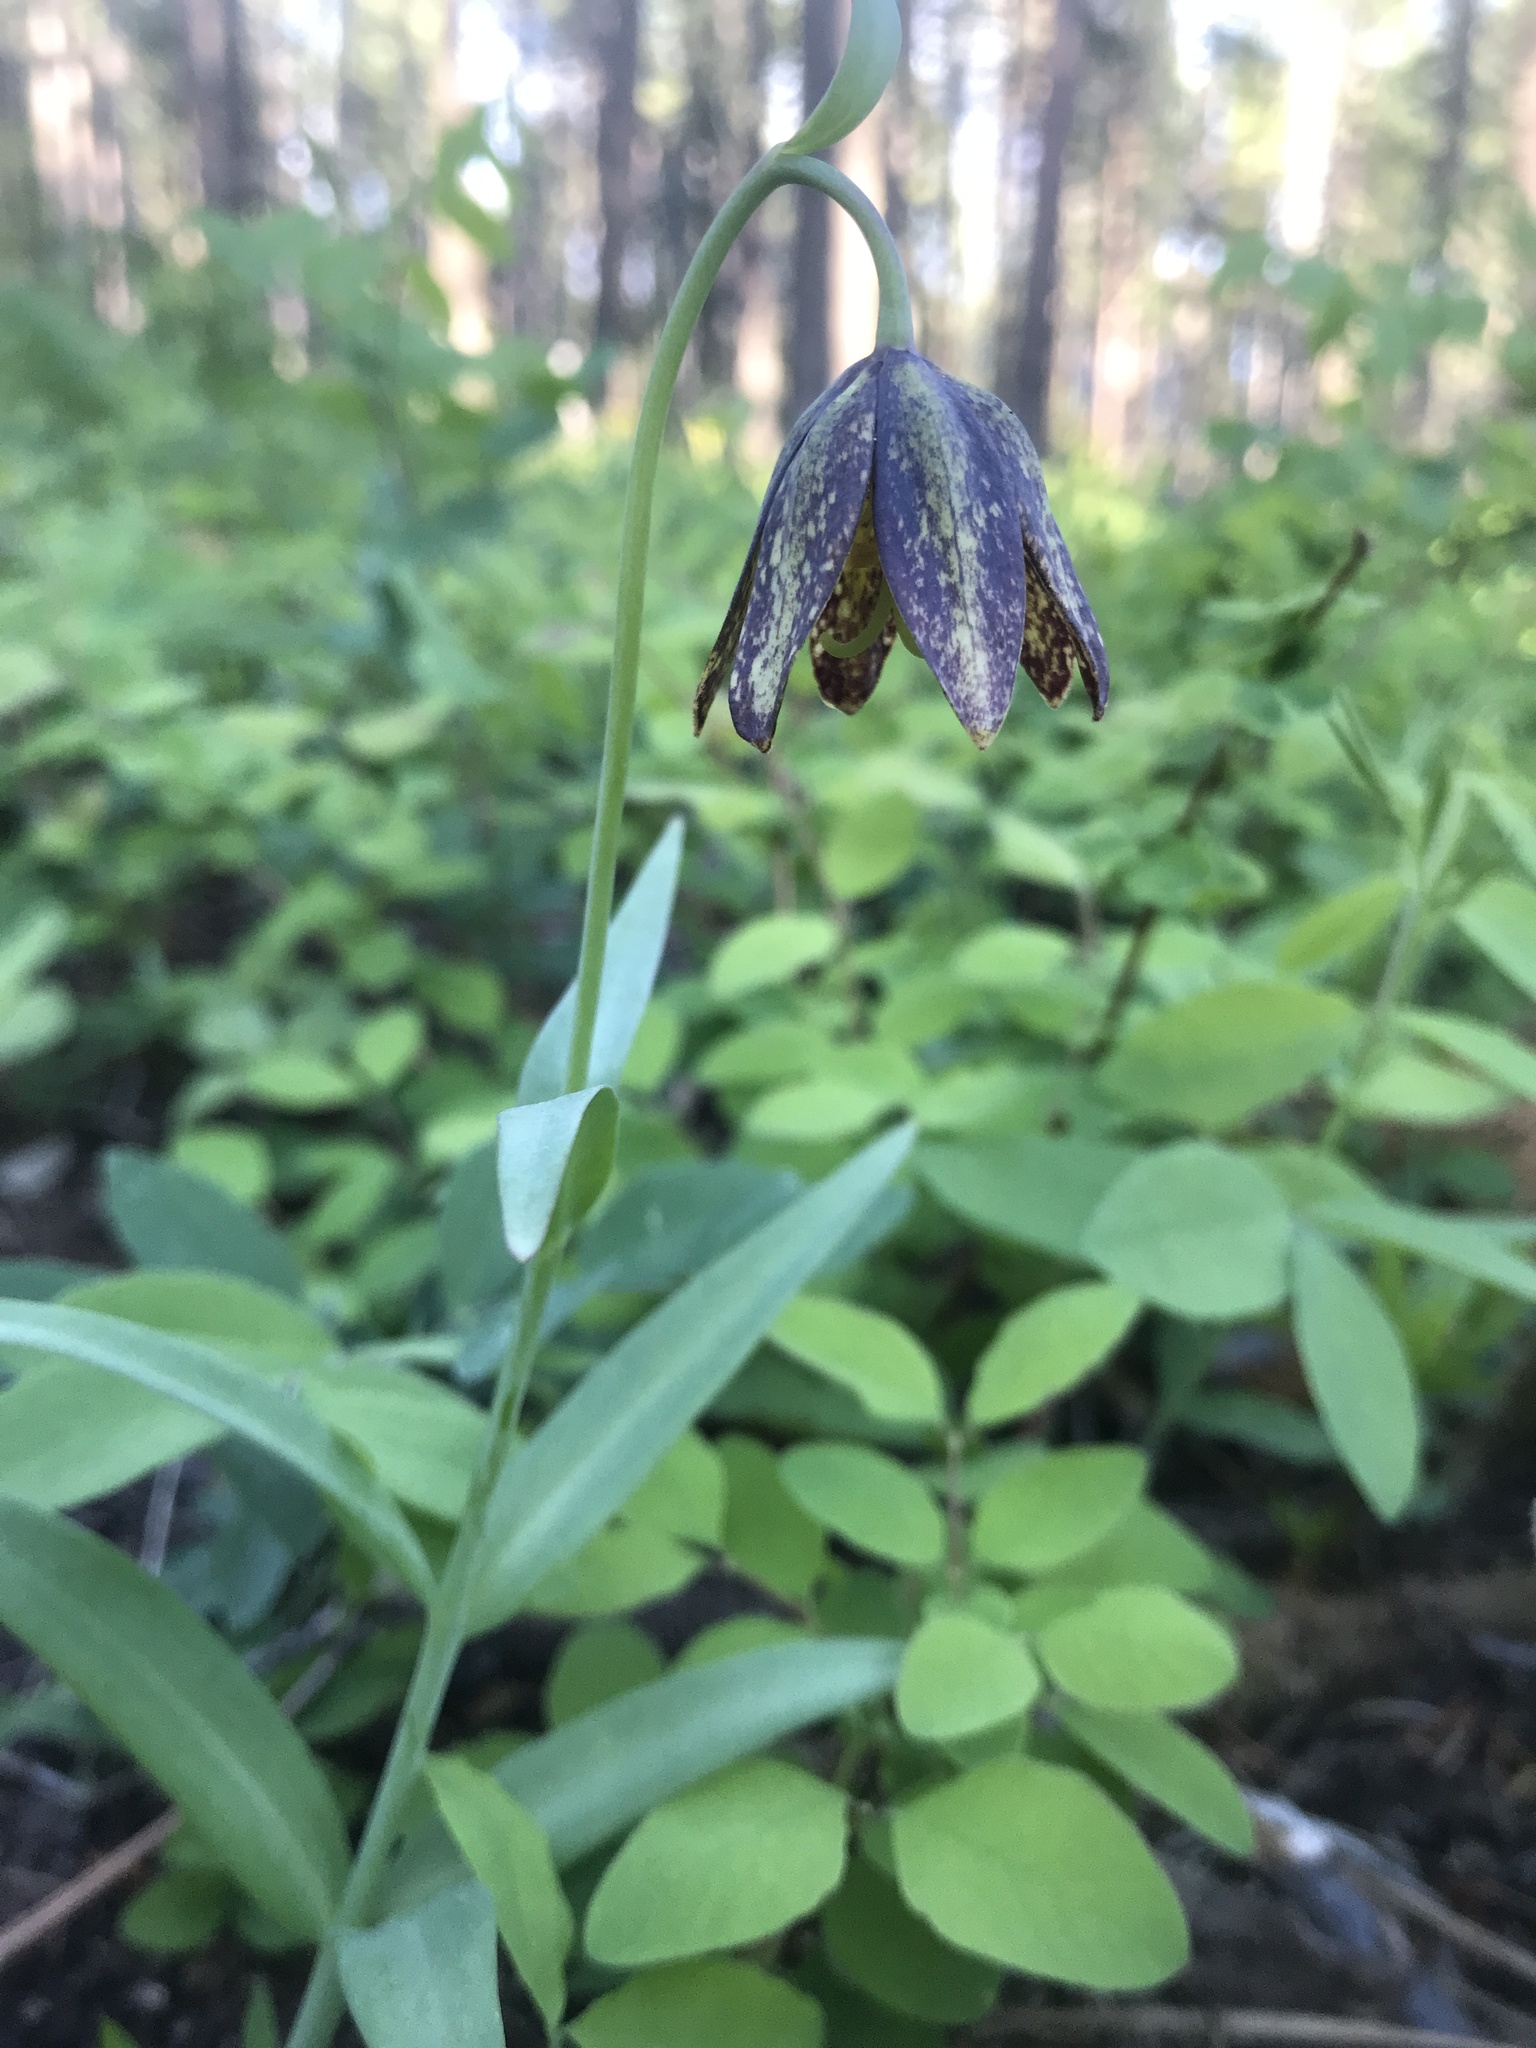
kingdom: Plantae
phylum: Tracheophyta
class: Liliopsida
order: Liliales
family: Liliaceae
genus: Fritillaria
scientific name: Fritillaria affinis
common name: Ojai fritillary
